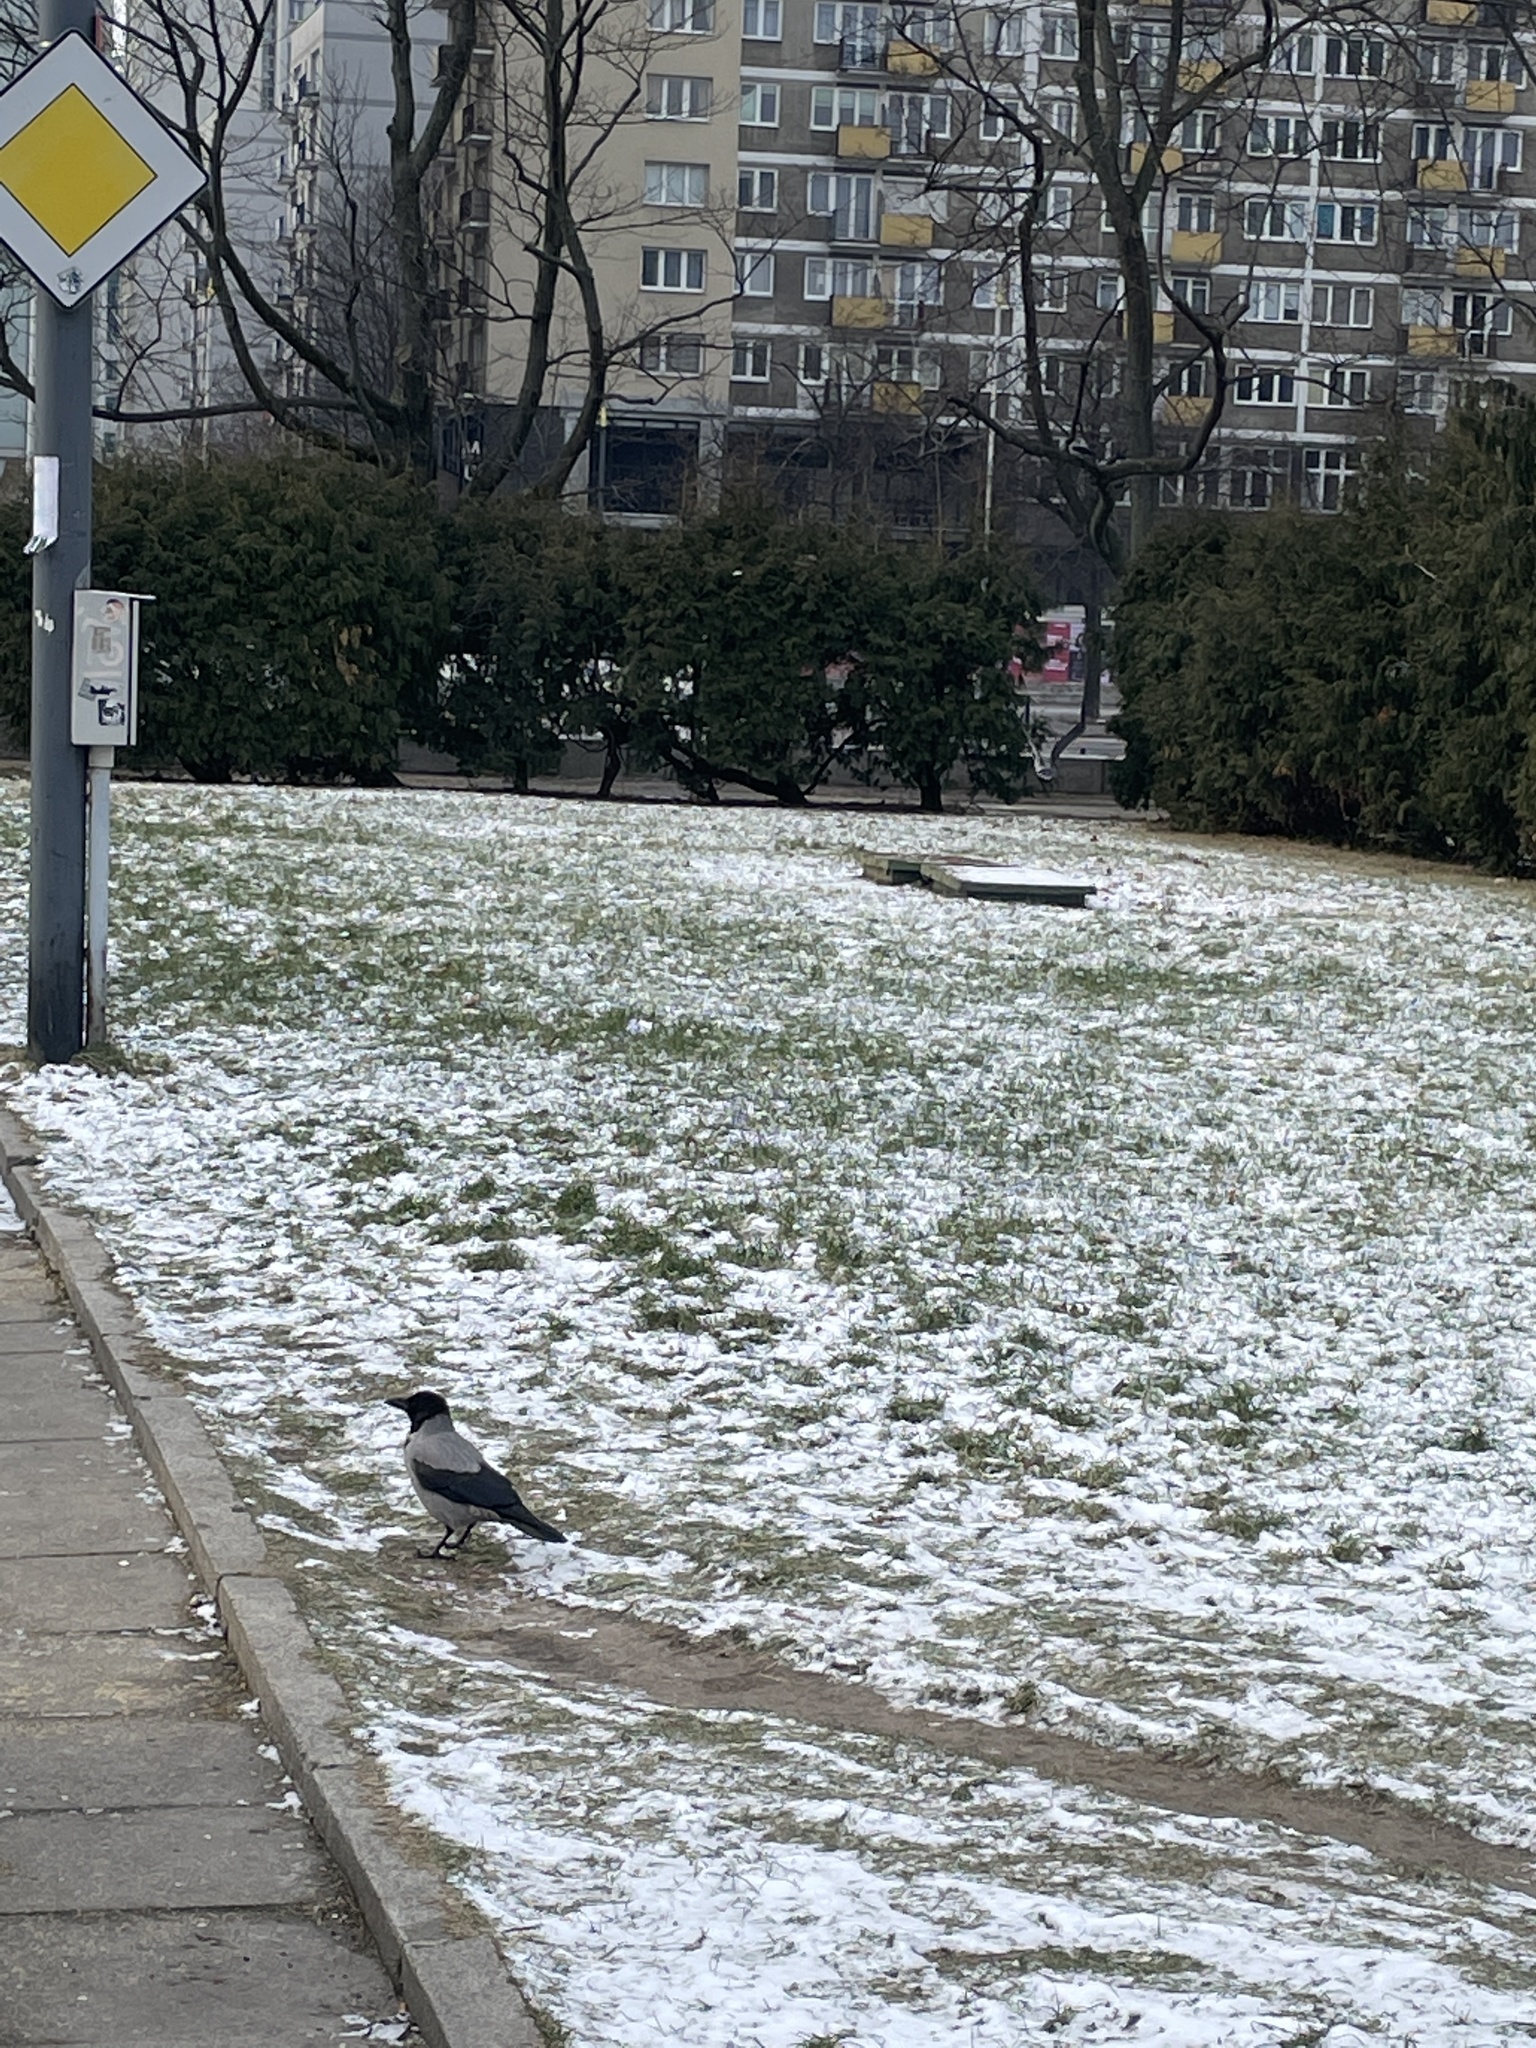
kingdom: Animalia
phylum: Chordata
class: Aves
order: Passeriformes
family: Corvidae
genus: Corvus
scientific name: Corvus cornix
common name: Hooded crow
